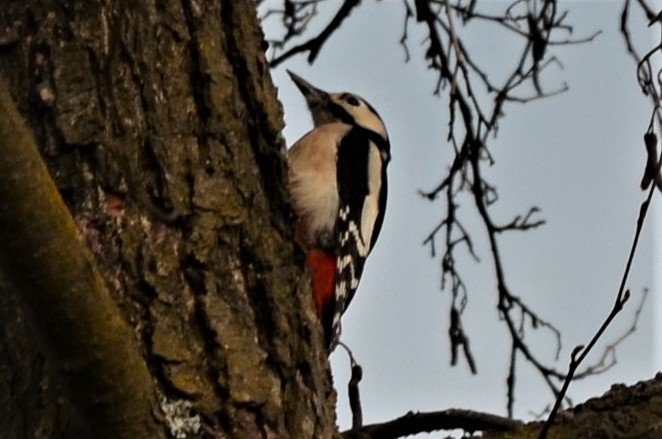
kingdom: Animalia
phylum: Chordata
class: Aves
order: Piciformes
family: Picidae
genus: Dendrocopos
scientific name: Dendrocopos major
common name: Great spotted woodpecker
